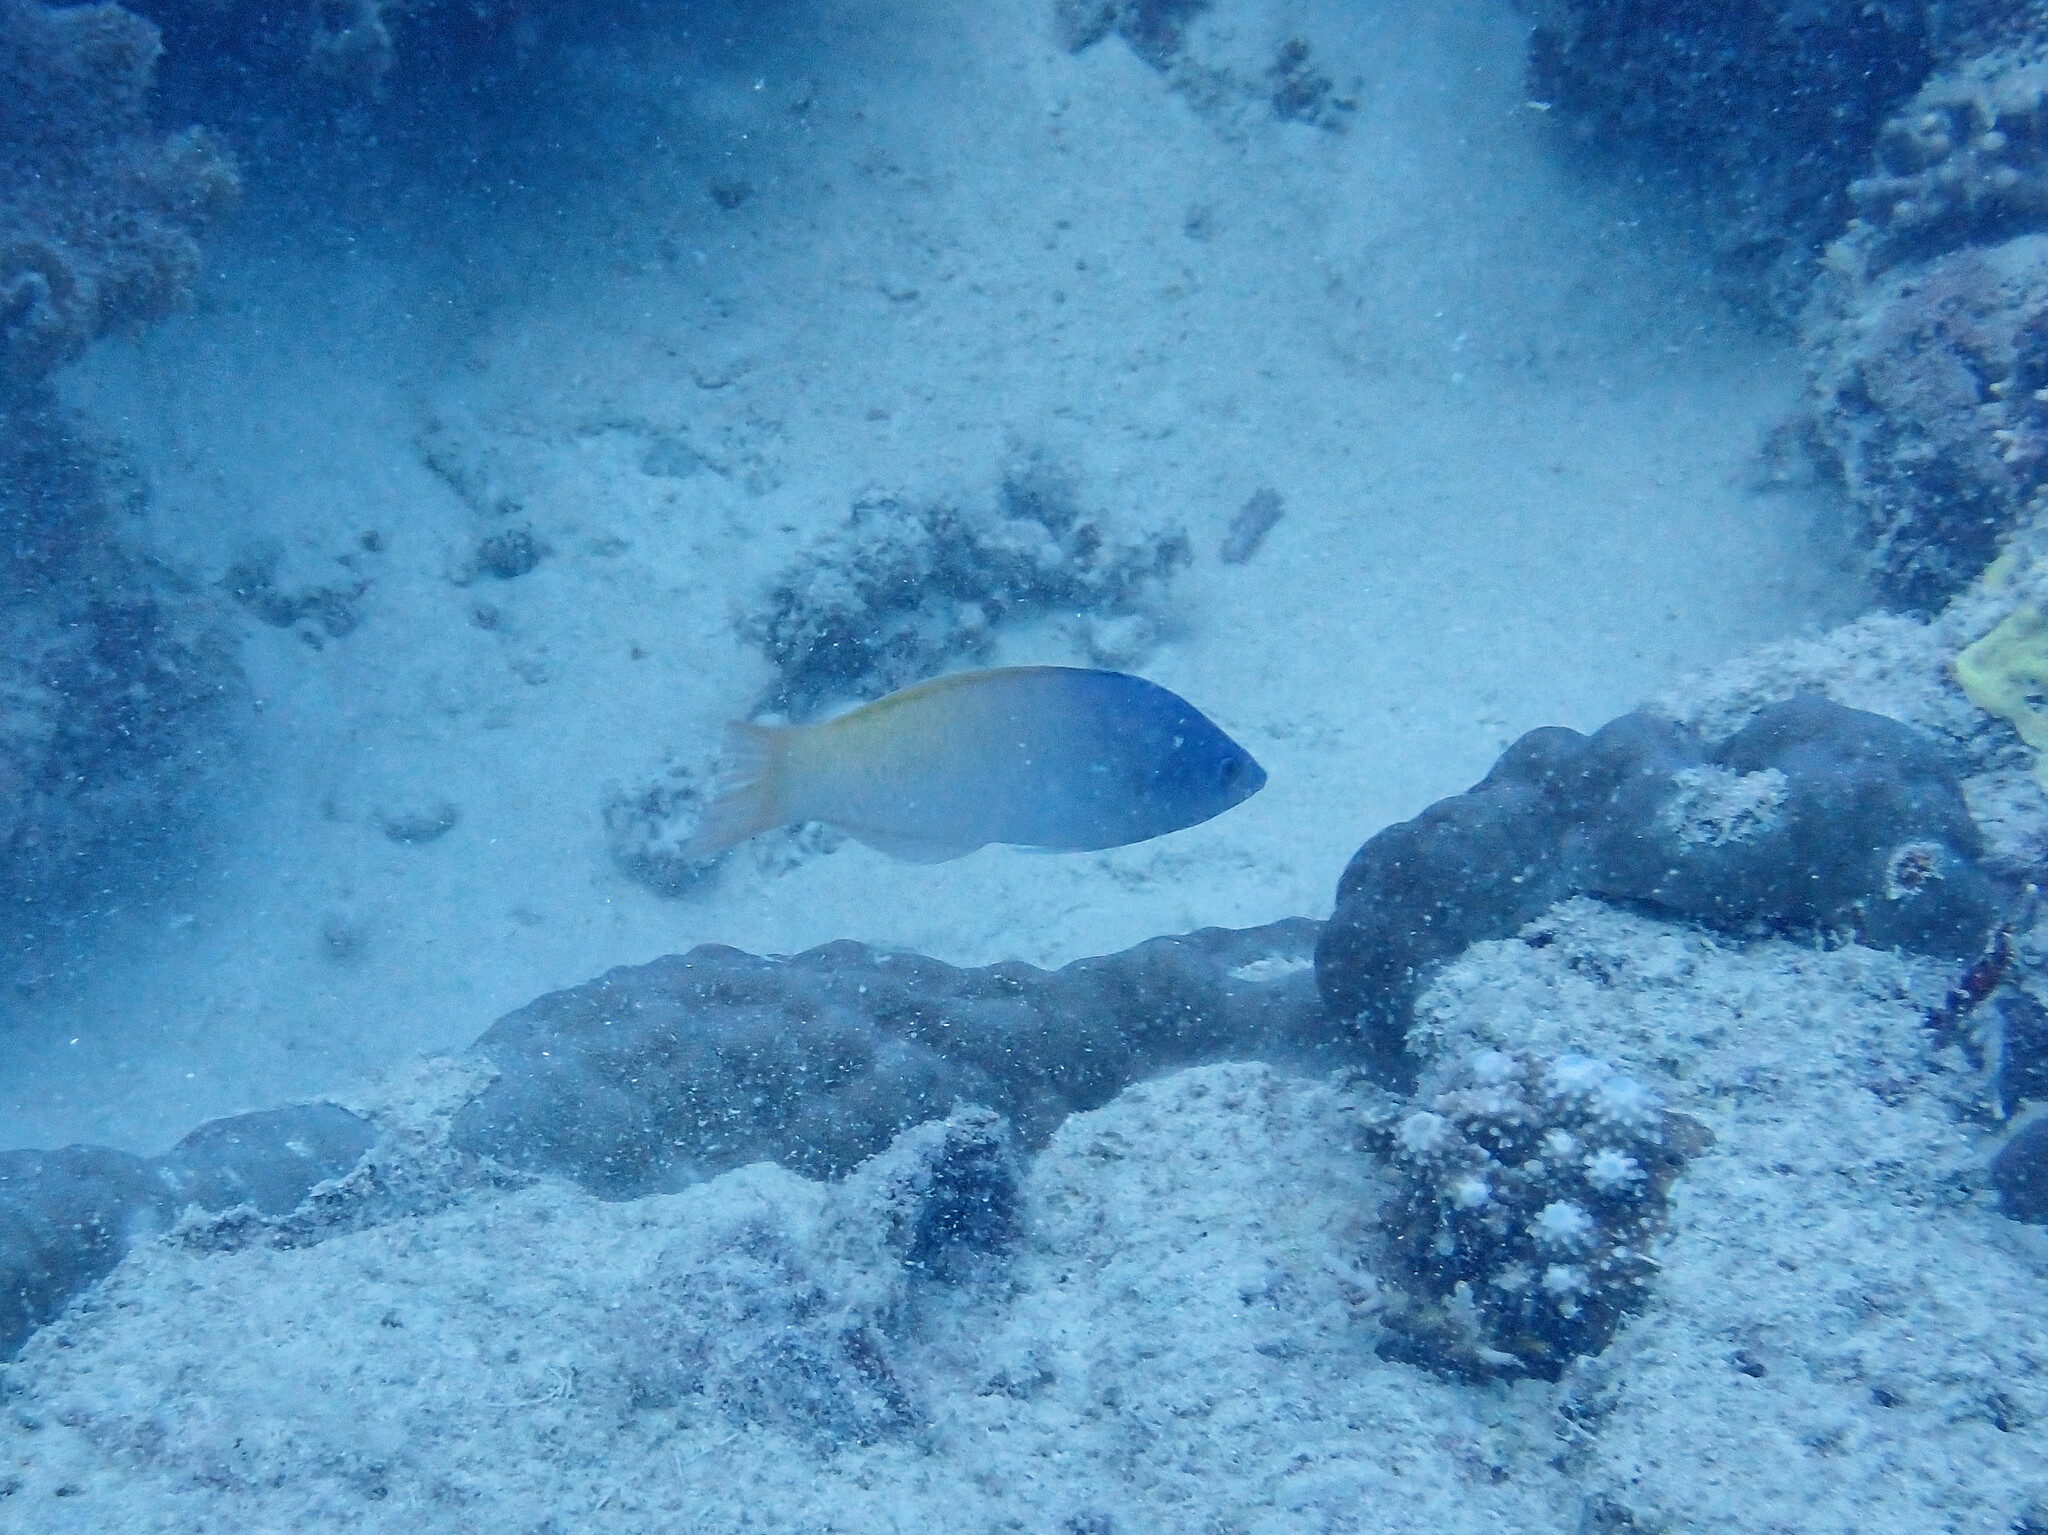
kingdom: Animalia
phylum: Chordata
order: Perciformes
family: Labridae
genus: Halichoeres
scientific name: Halichoeres prosopeion
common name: Half-grey wrasse
